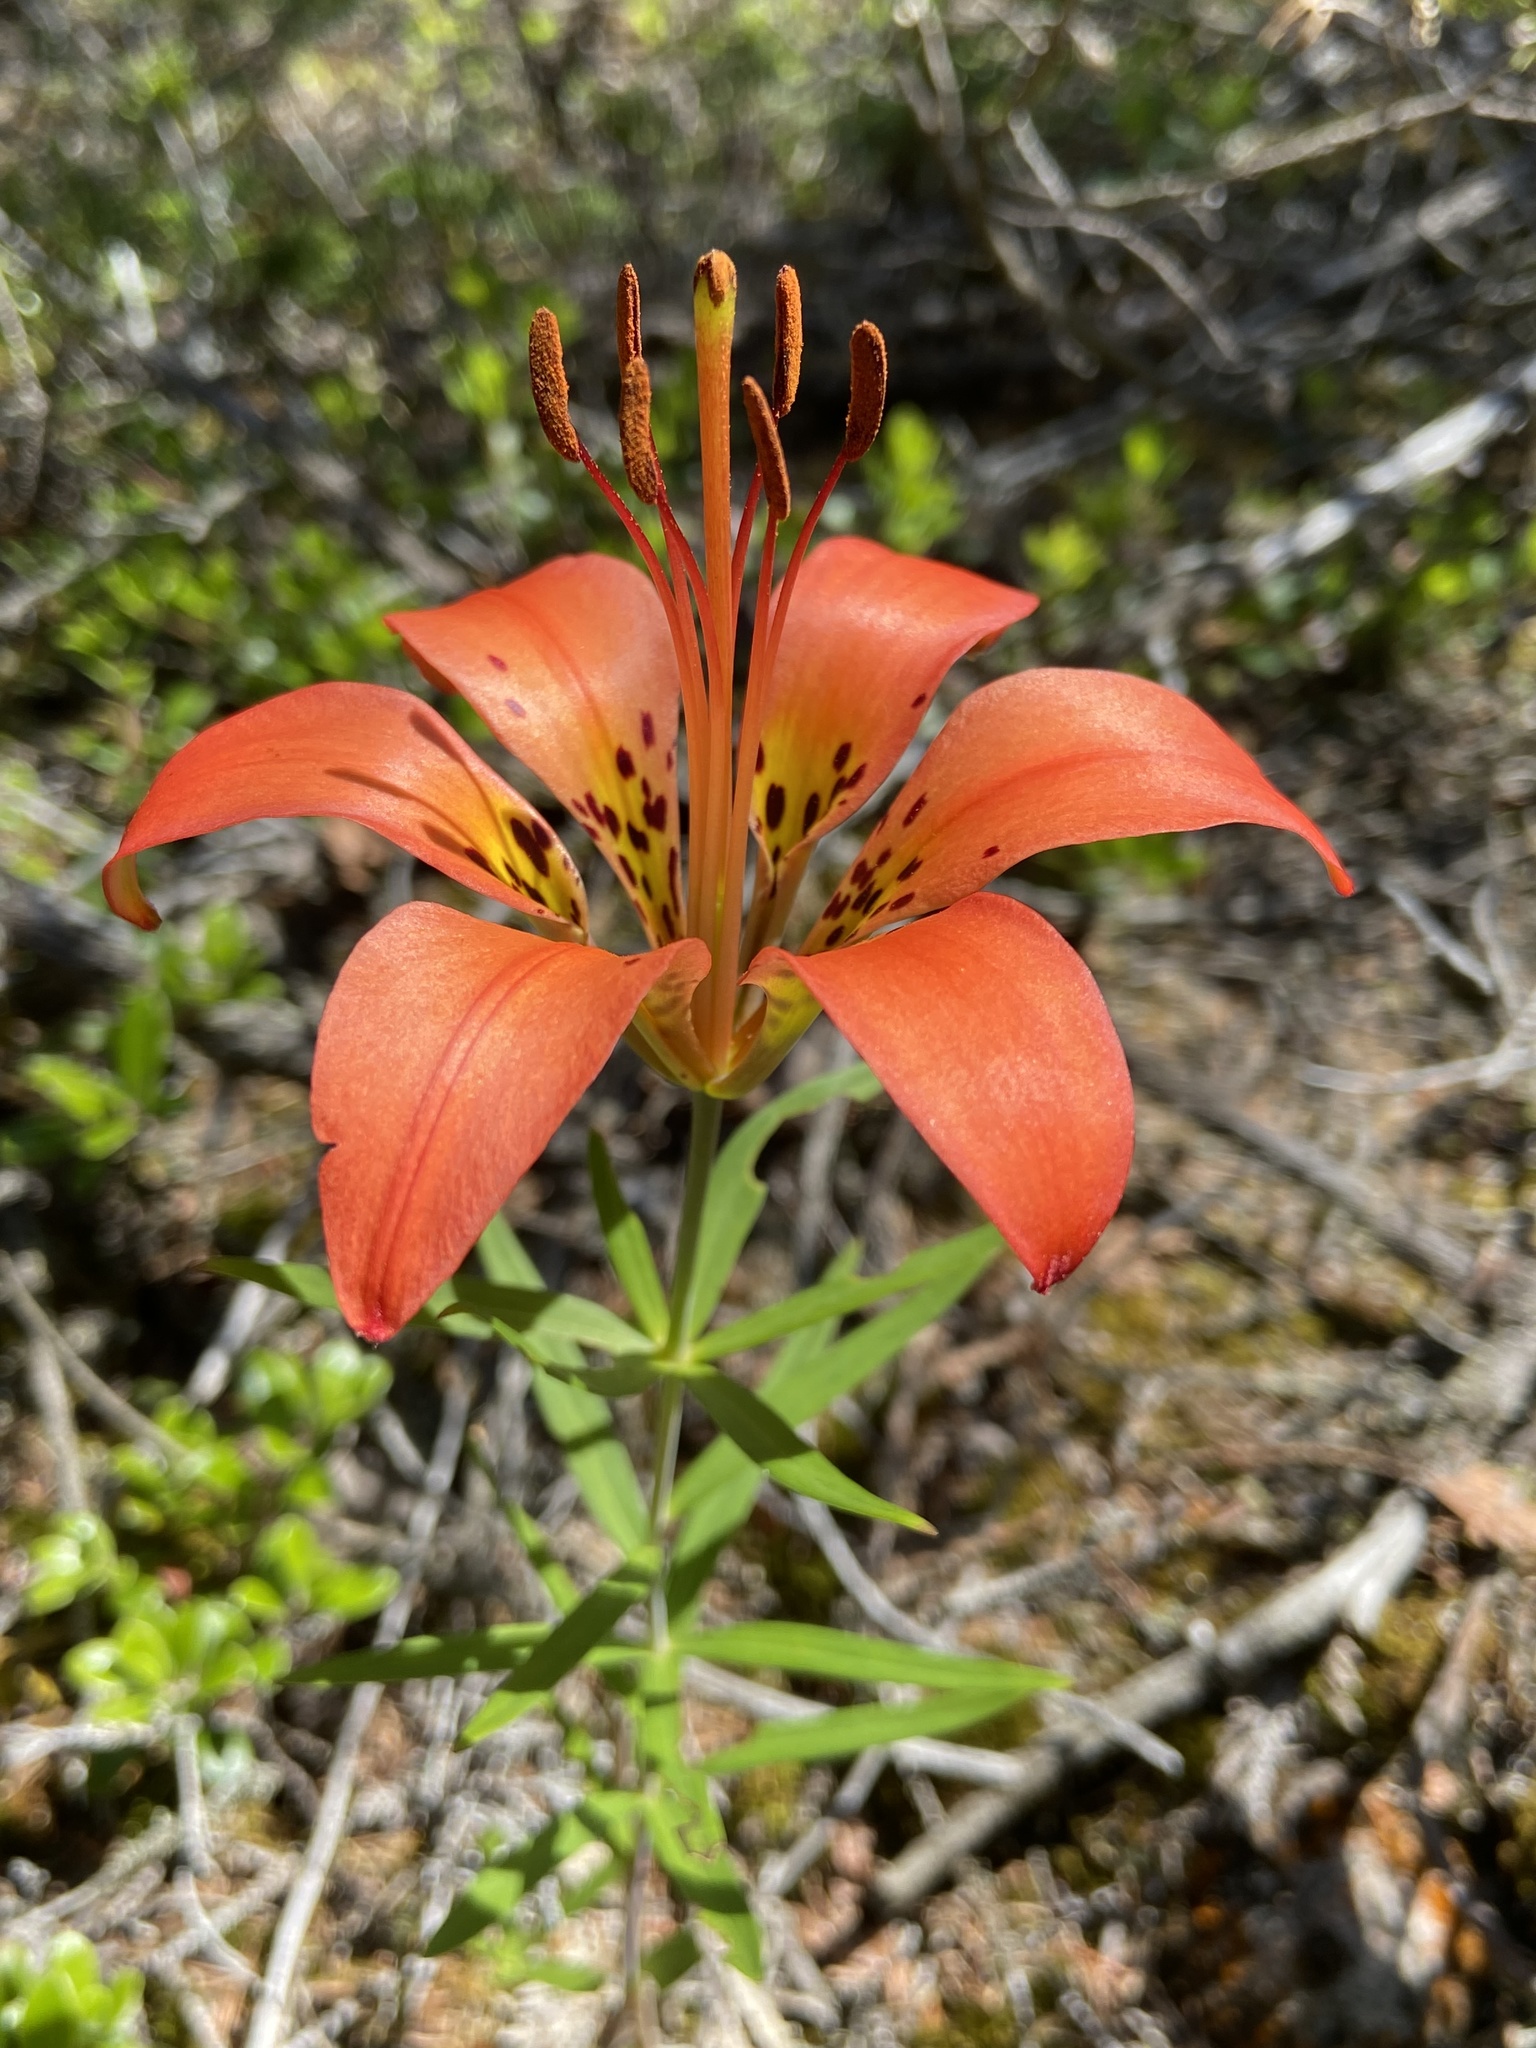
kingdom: Plantae
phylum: Tracheophyta
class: Liliopsida
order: Liliales
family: Liliaceae
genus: Lilium
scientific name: Lilium philadelphicum
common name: Red lily
